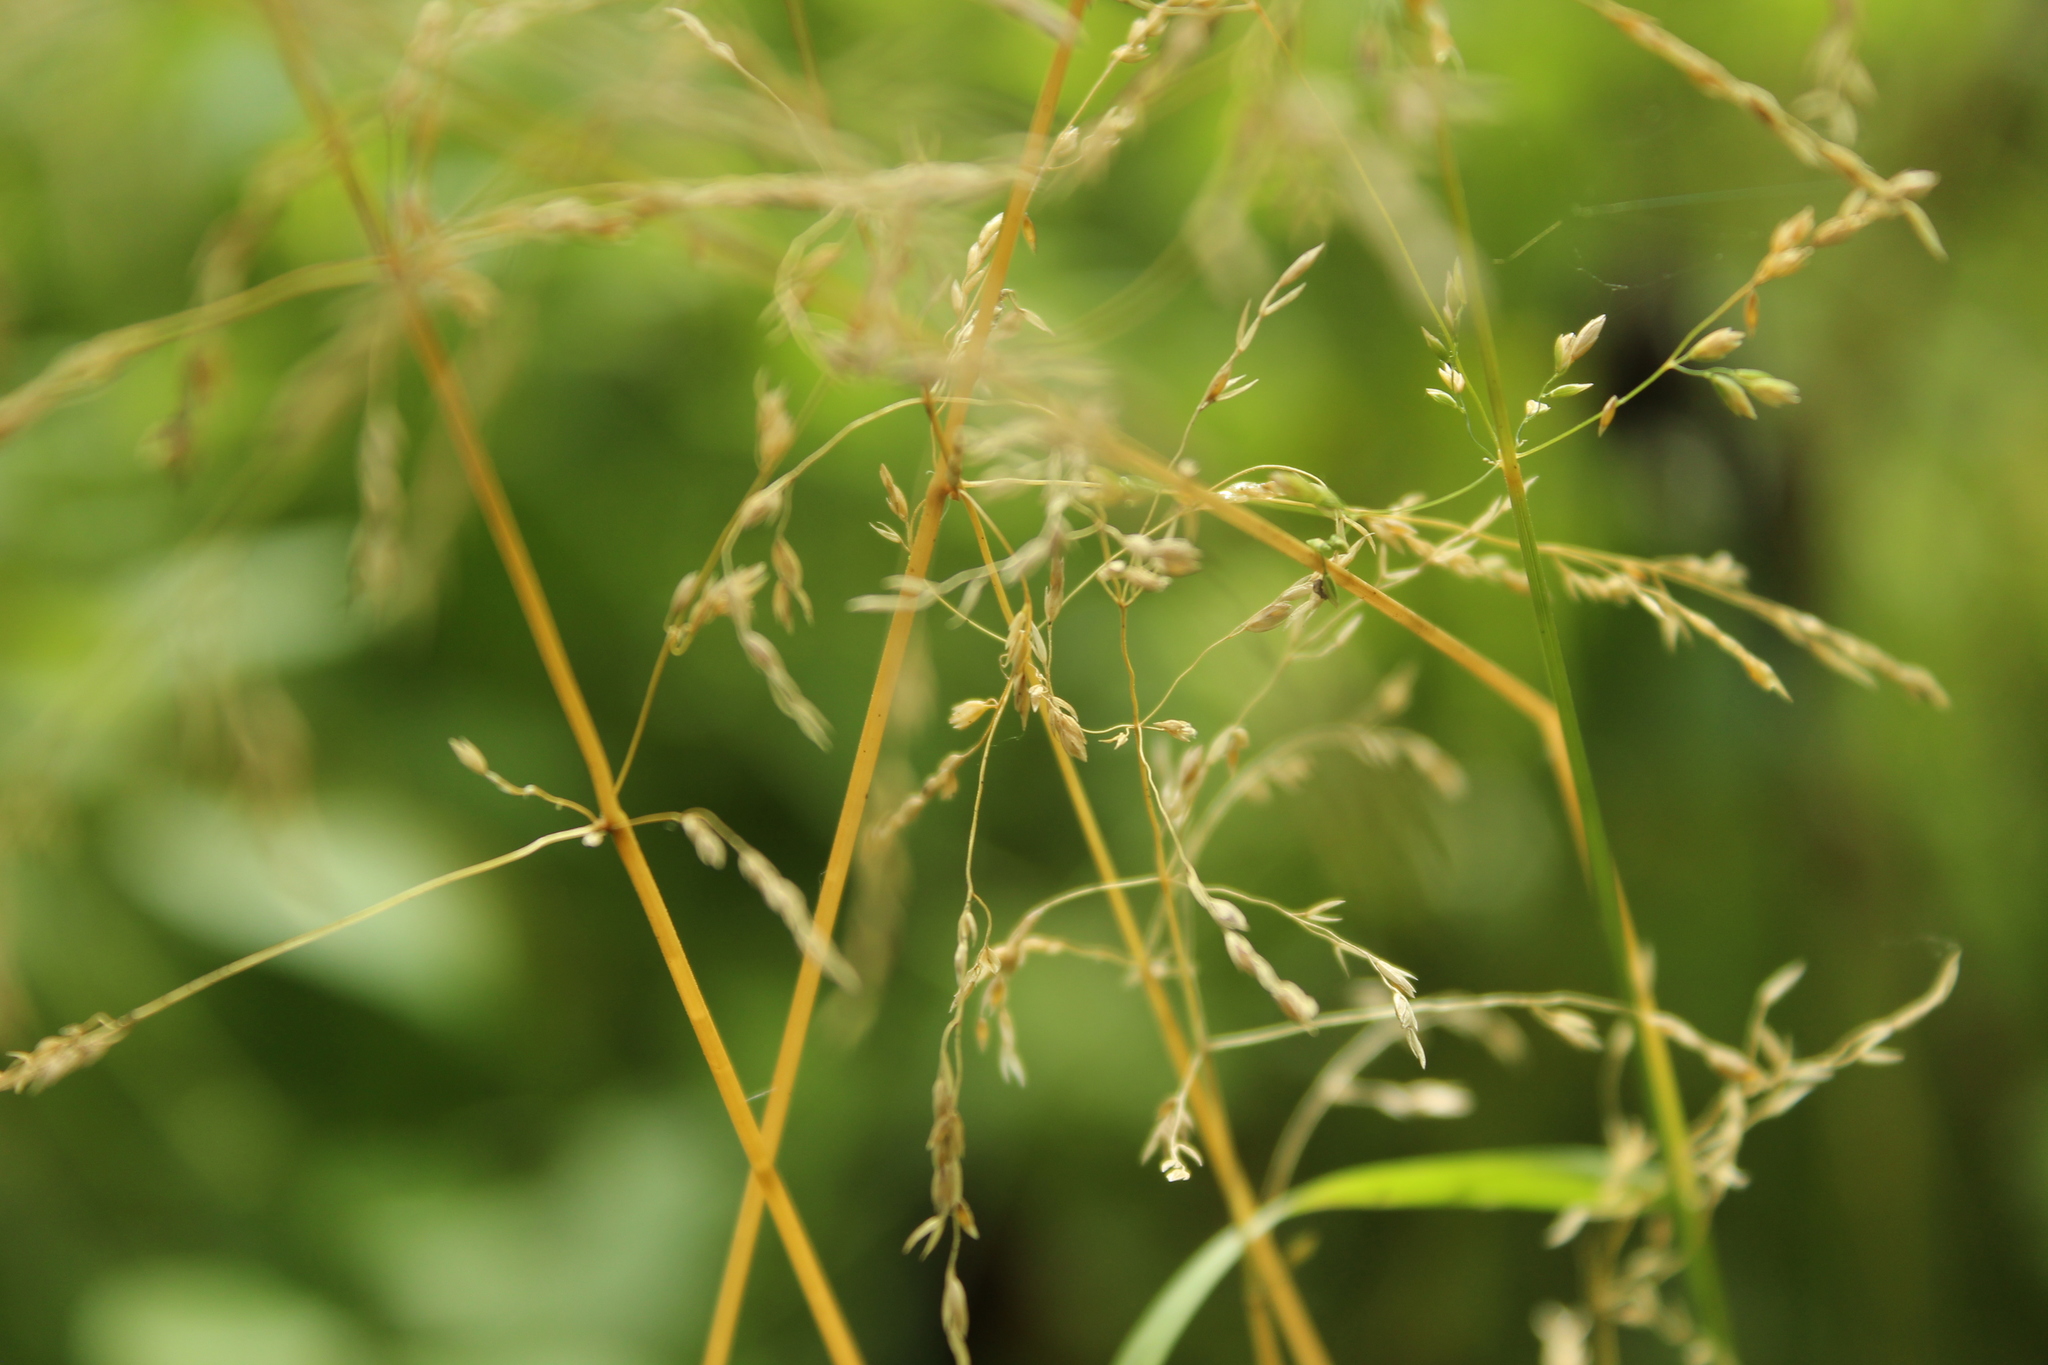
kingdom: Plantae
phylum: Tracheophyta
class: Liliopsida
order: Poales
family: Poaceae
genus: Poa
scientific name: Poa trivialis
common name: Rough bluegrass
